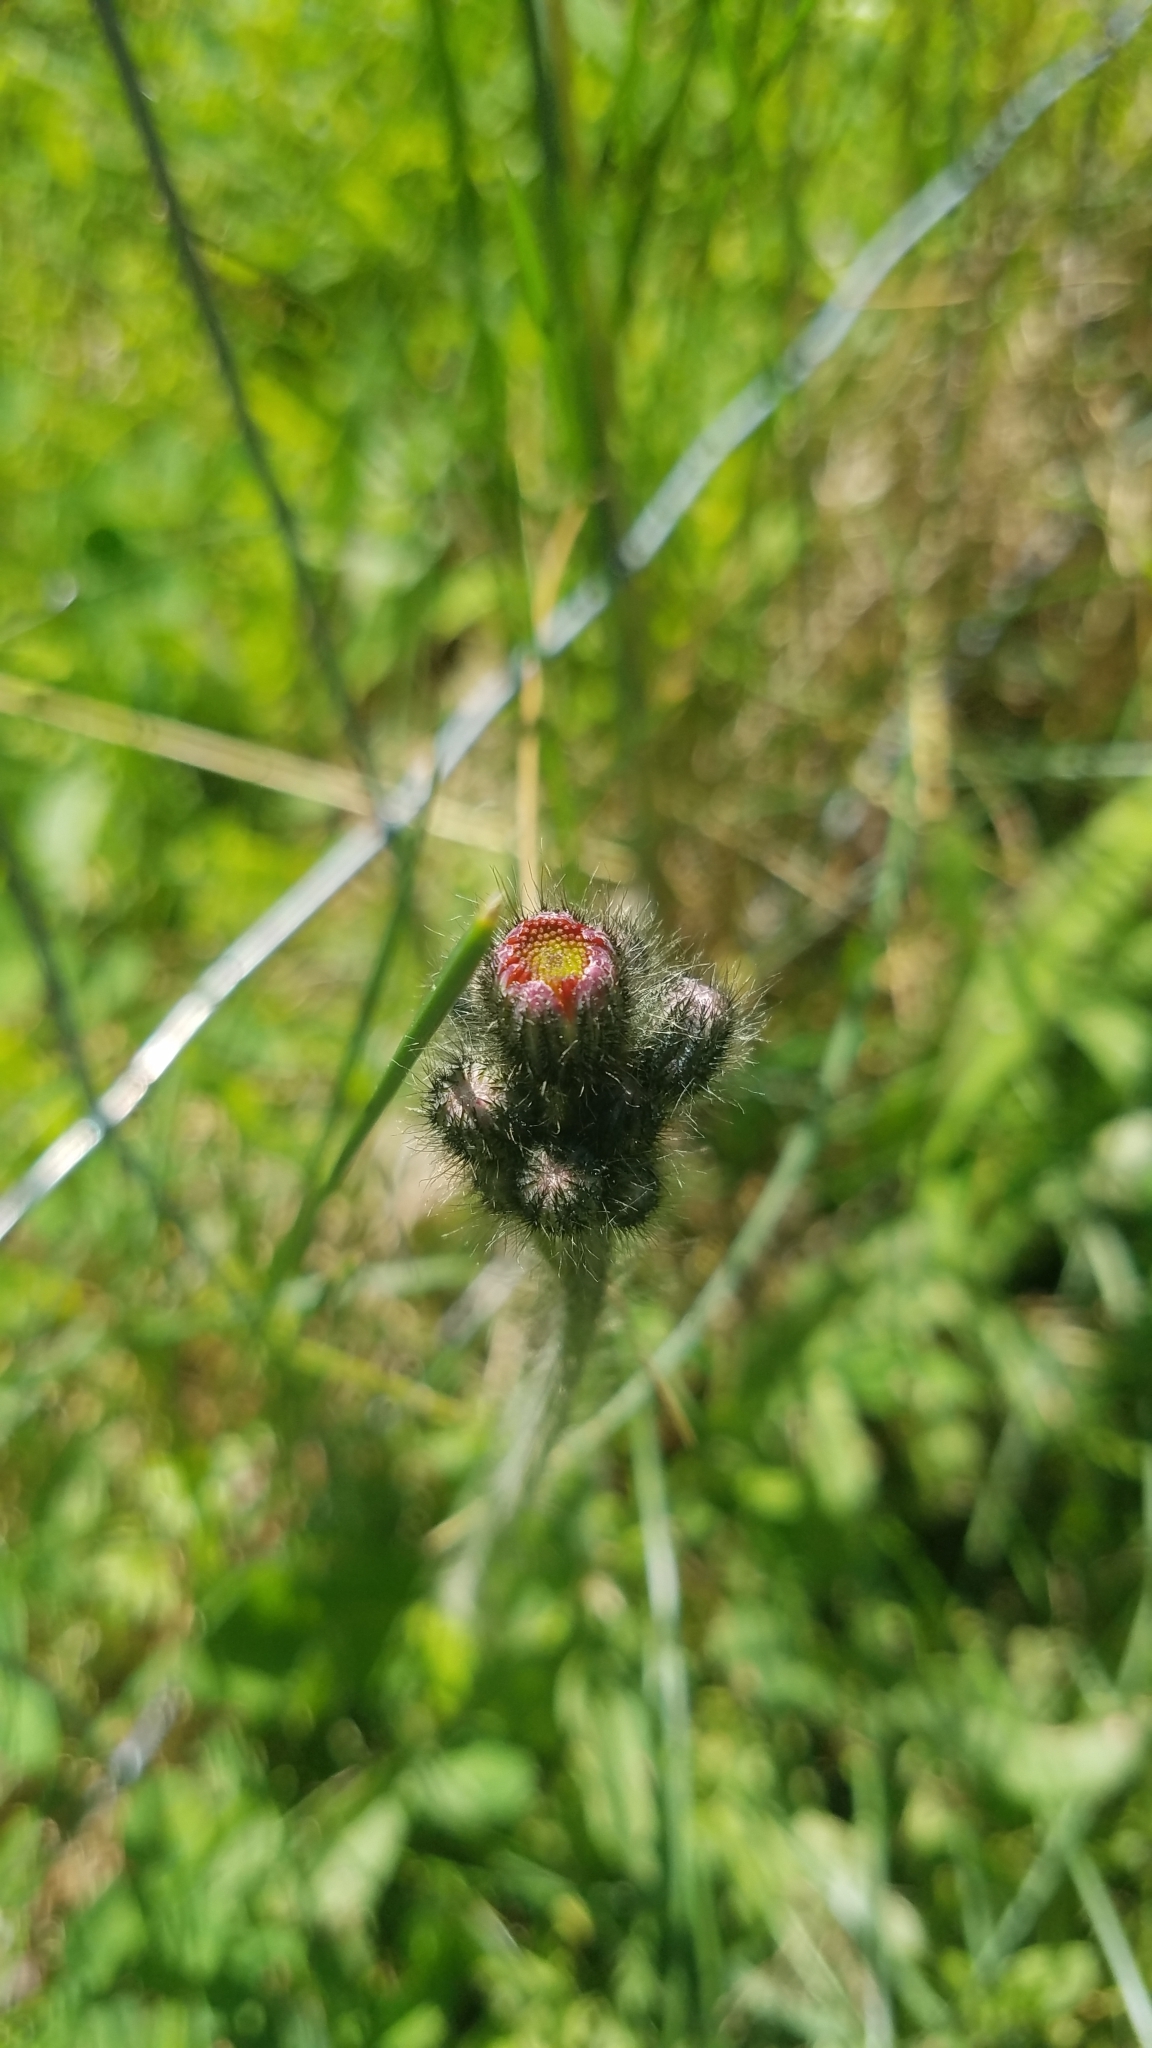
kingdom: Plantae
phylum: Tracheophyta
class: Magnoliopsida
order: Asterales
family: Asteraceae
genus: Pilosella
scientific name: Pilosella aurantiaca
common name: Fox-and-cubs
